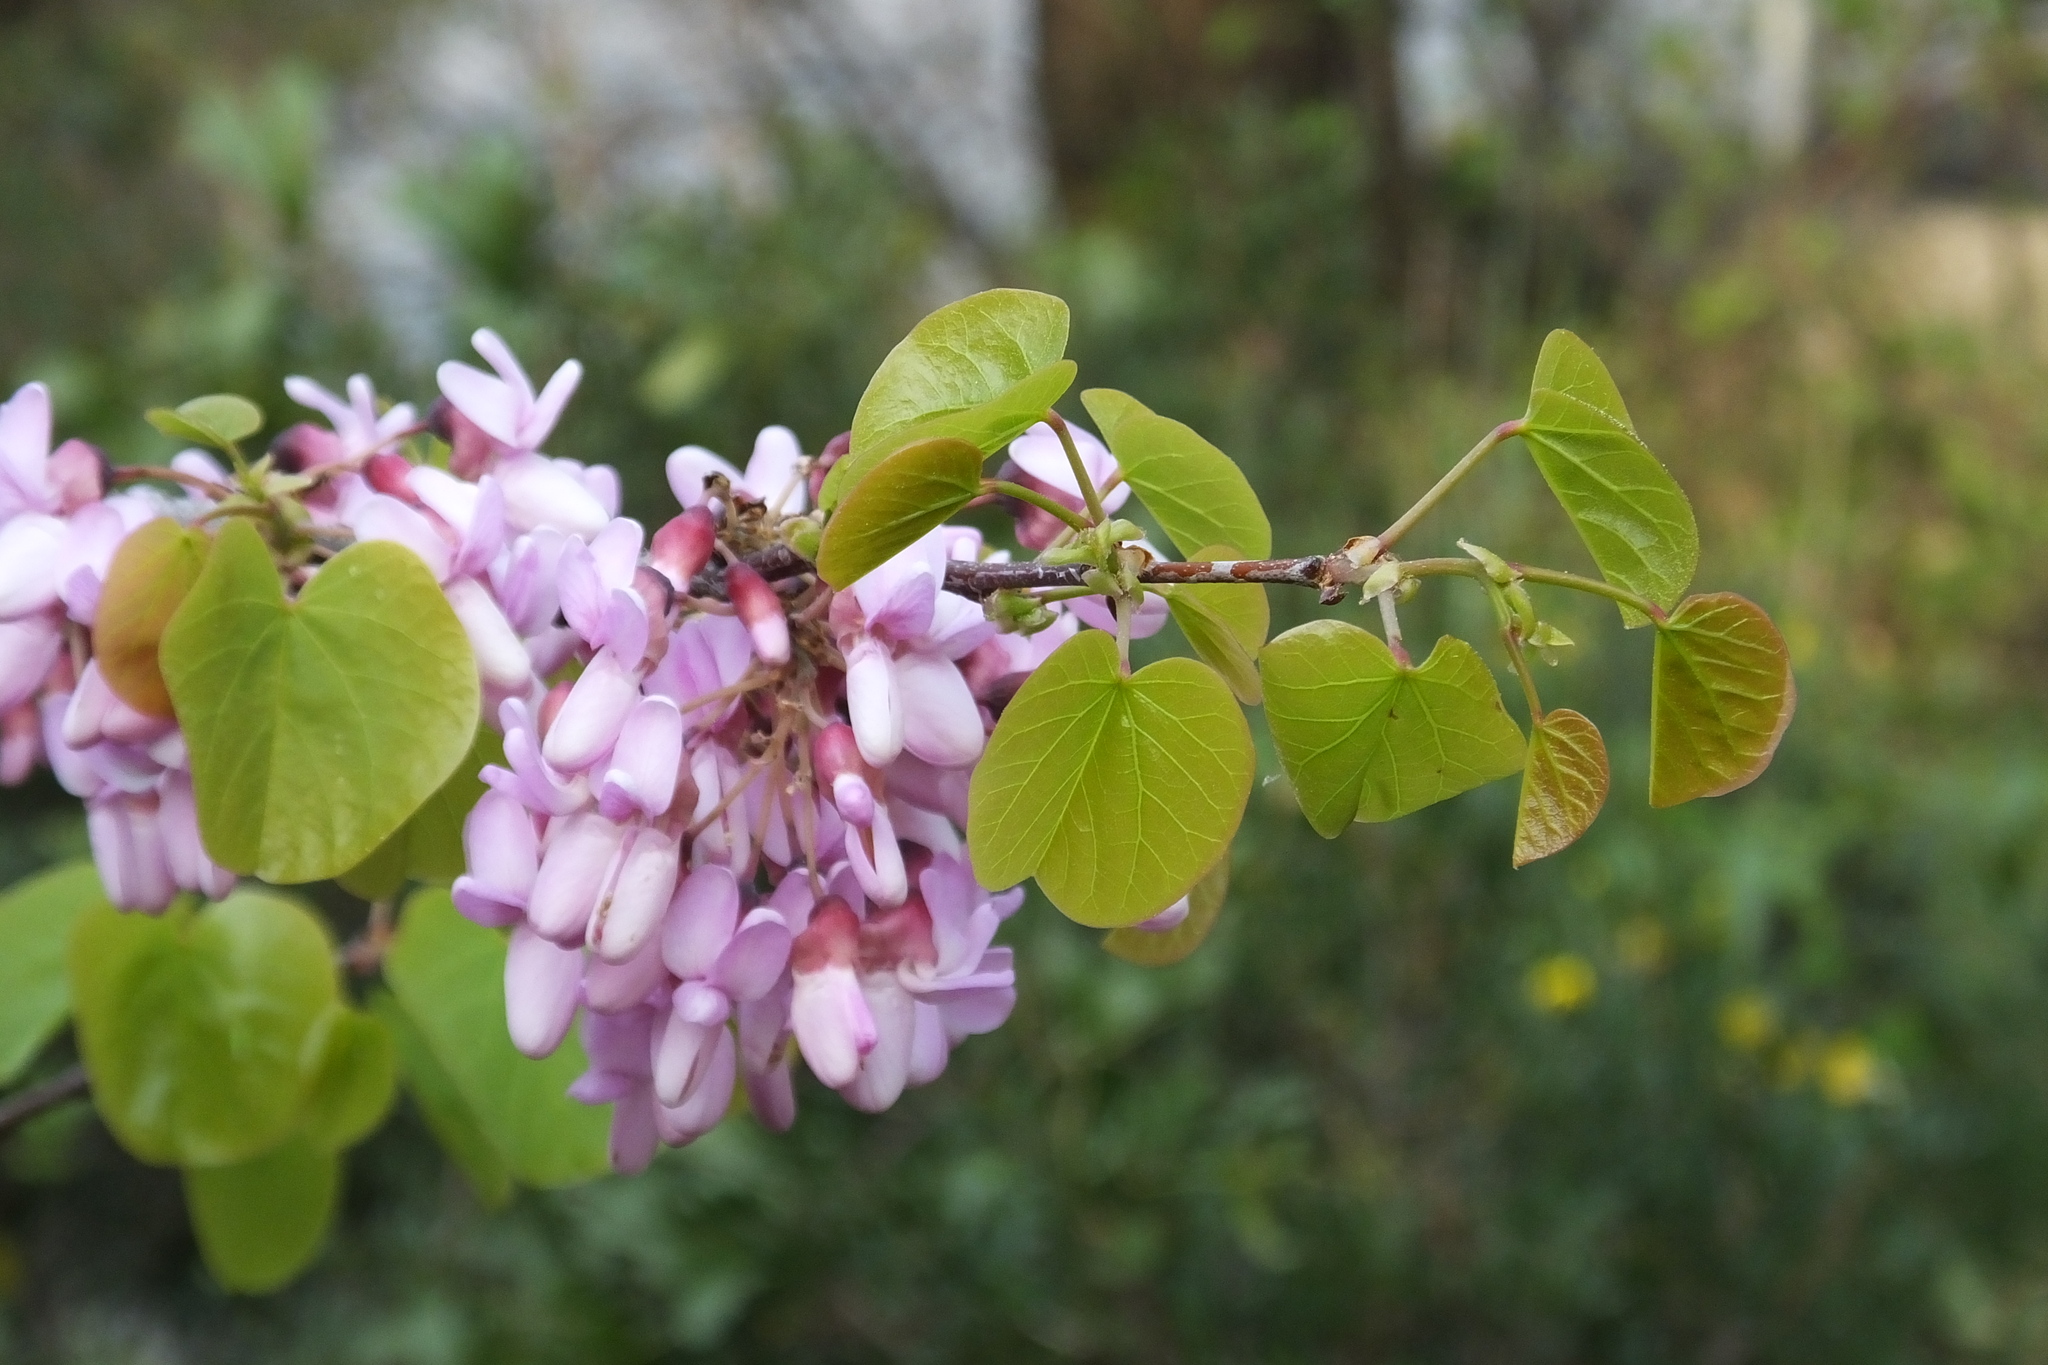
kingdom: Plantae
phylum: Tracheophyta
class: Magnoliopsida
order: Fabales
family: Fabaceae
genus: Cercis
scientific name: Cercis siliquastrum
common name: Judas tree
